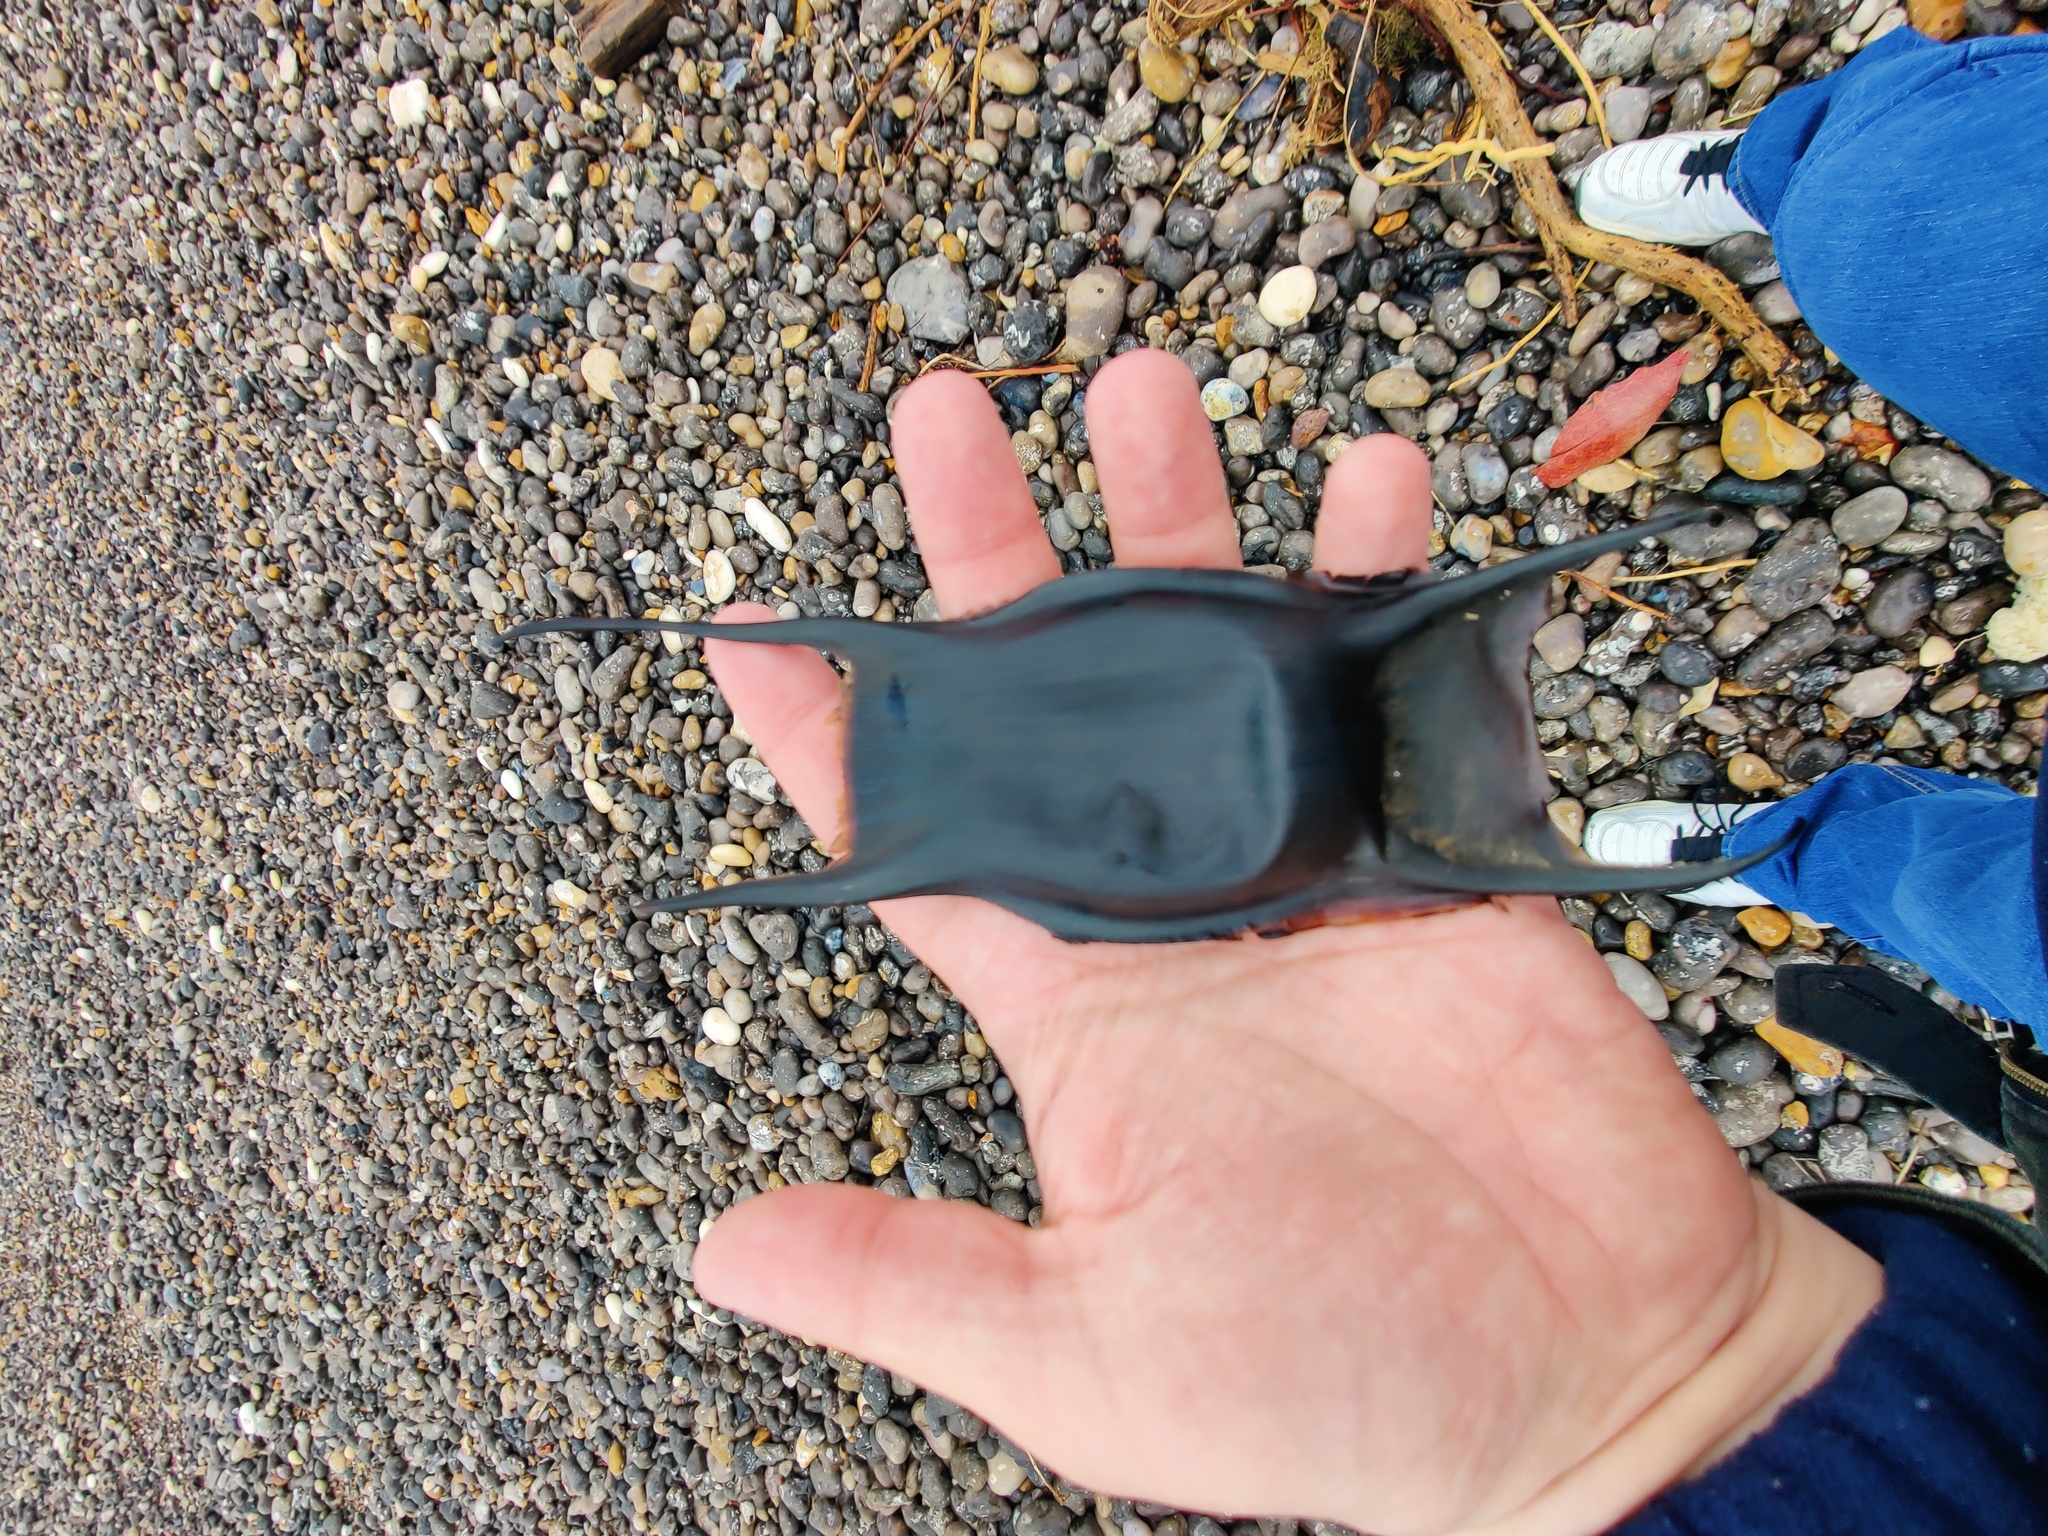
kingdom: Animalia
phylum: Chordata
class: Elasmobranchii
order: Rajiformes
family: Rajidae
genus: Raja
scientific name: Raja brachyura
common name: Blonde ray
